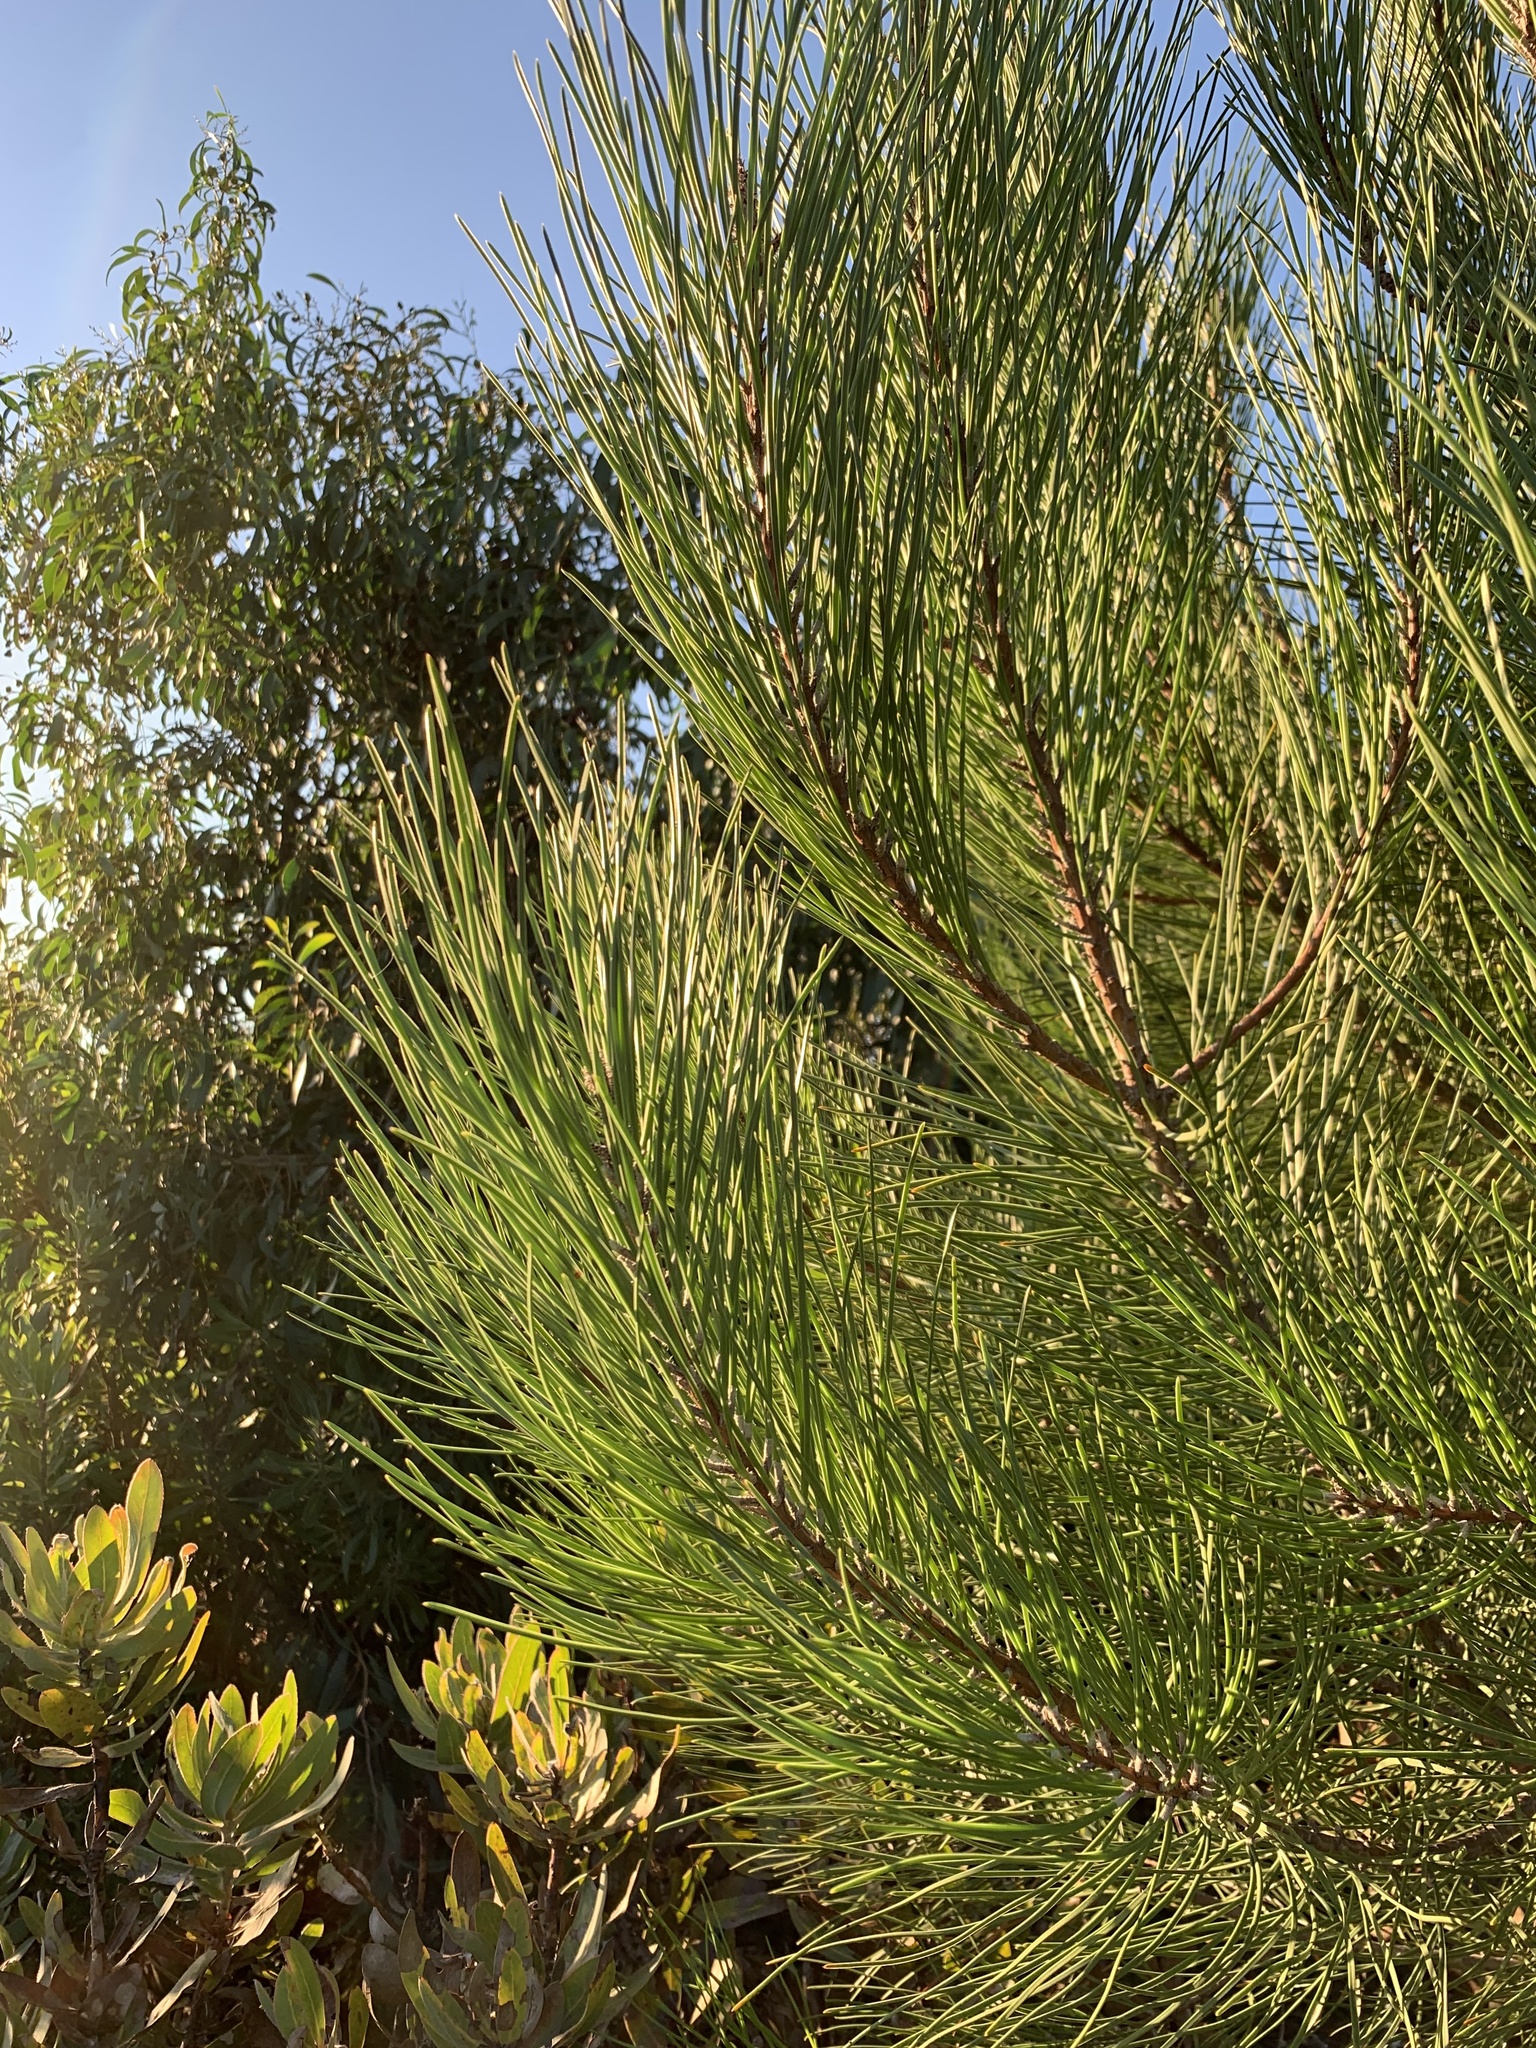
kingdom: Plantae
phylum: Tracheophyta
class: Pinopsida
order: Pinales
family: Pinaceae
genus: Pinus
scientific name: Pinus pinaster
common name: Maritime pine
